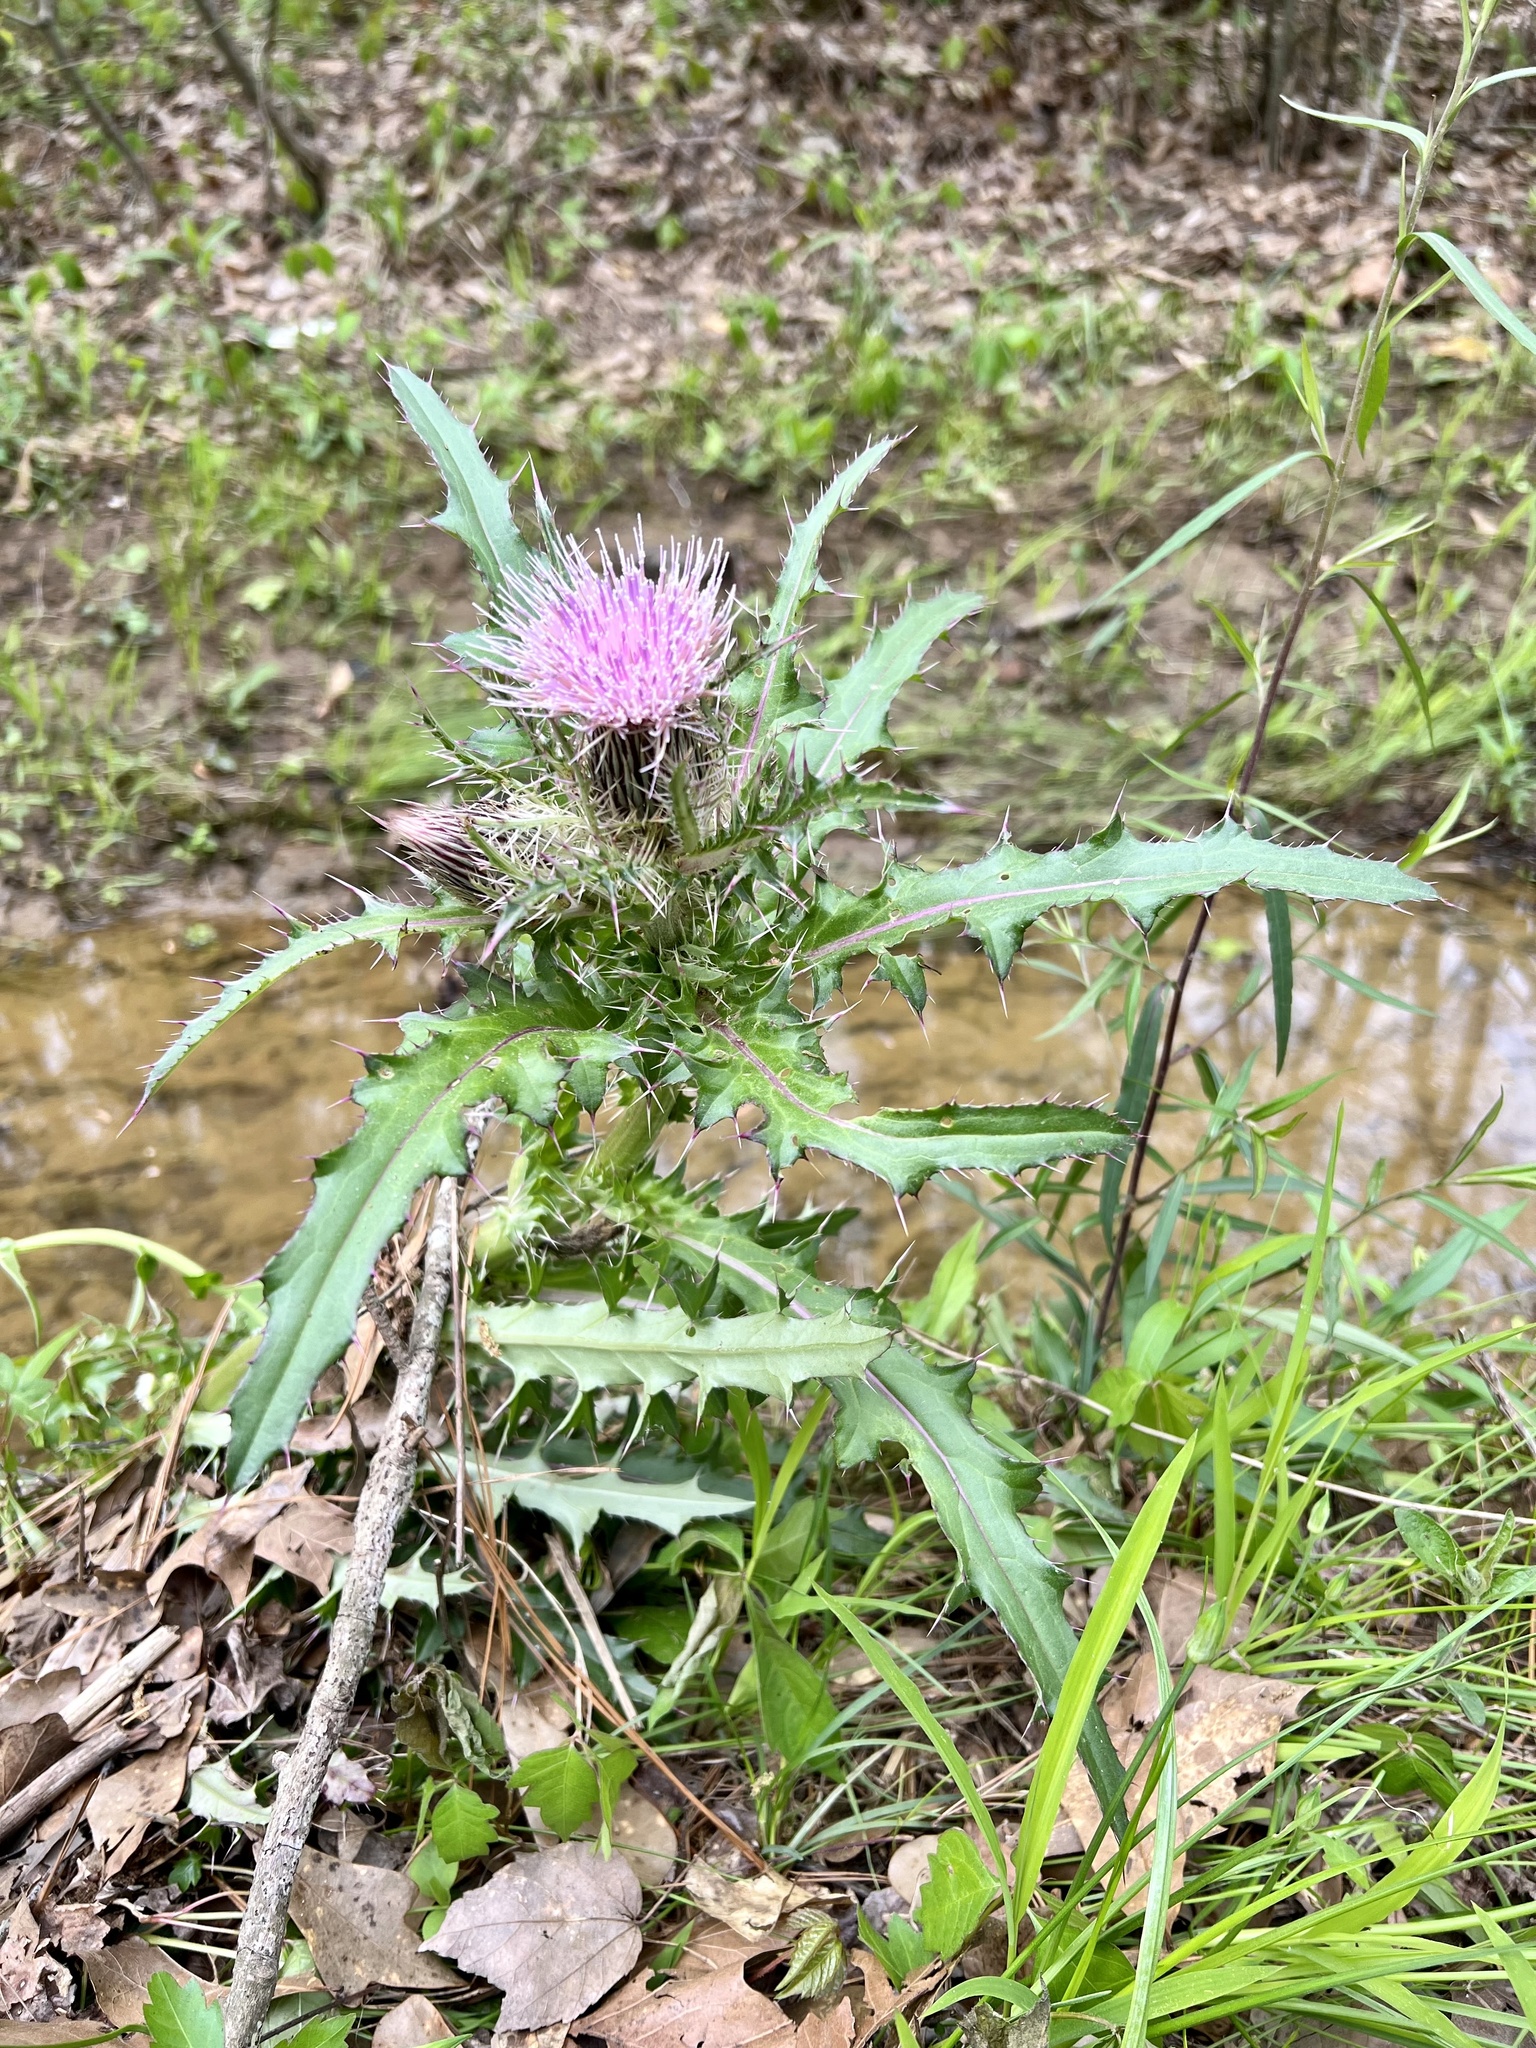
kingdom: Plantae
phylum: Tracheophyta
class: Magnoliopsida
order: Asterales
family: Asteraceae
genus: Cirsium
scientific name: Cirsium horridulum
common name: Bristly thistle
